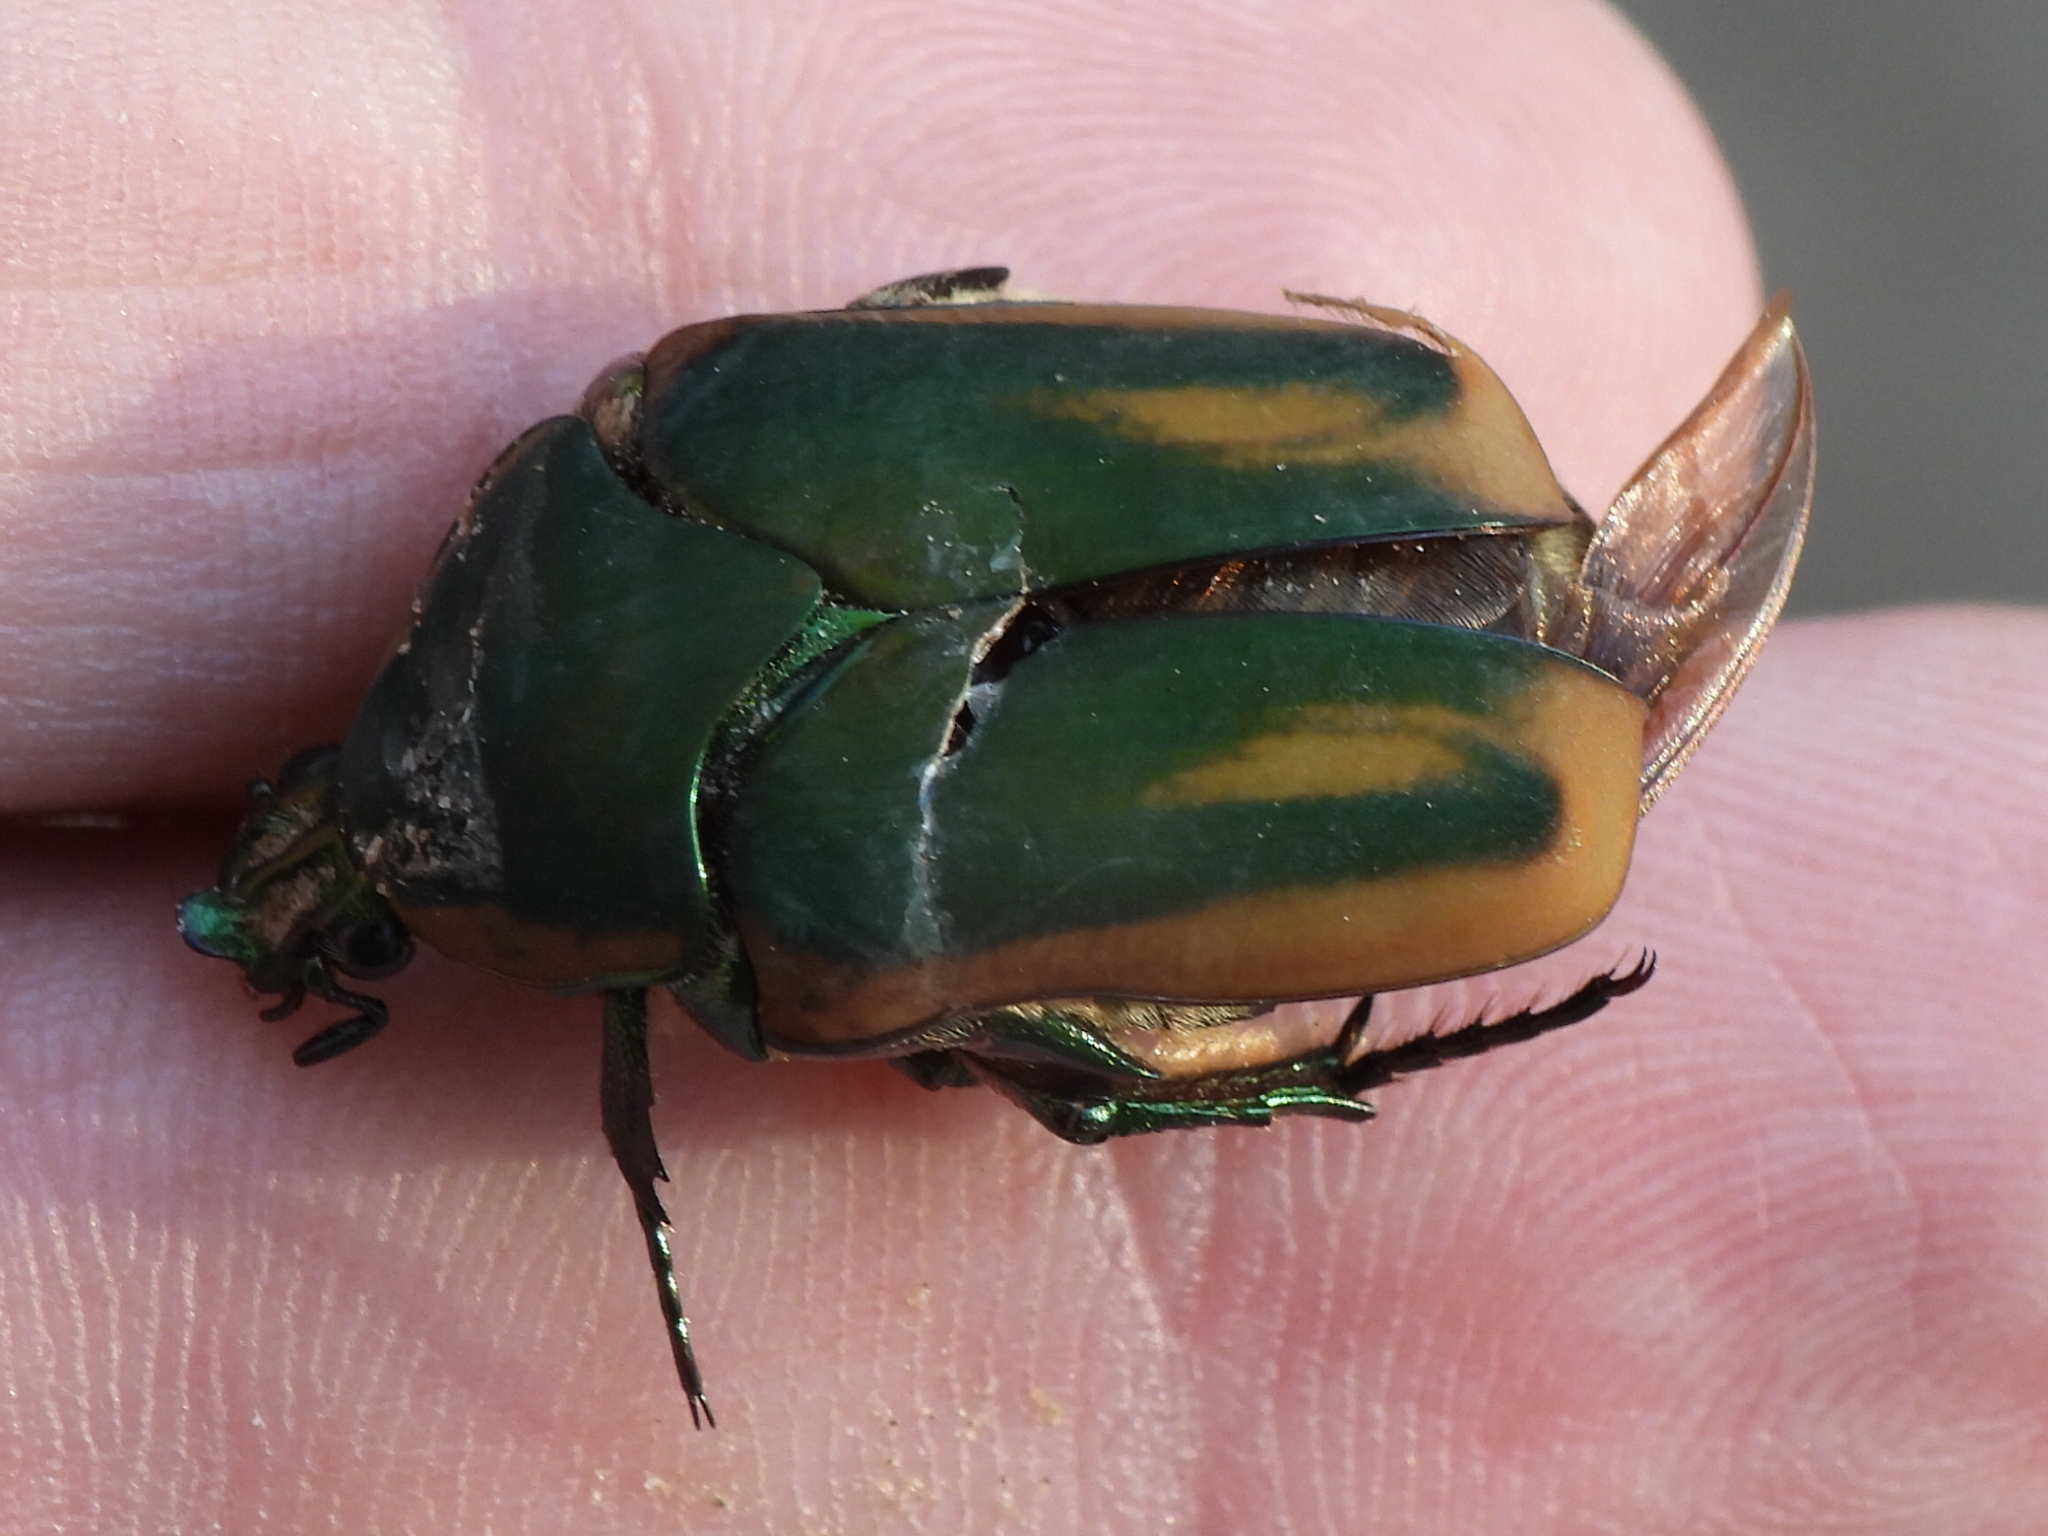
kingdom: Animalia
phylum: Arthropoda
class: Insecta
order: Coleoptera
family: Scarabaeidae
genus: Cotinis
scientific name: Cotinis nitida
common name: Common green june beetle
